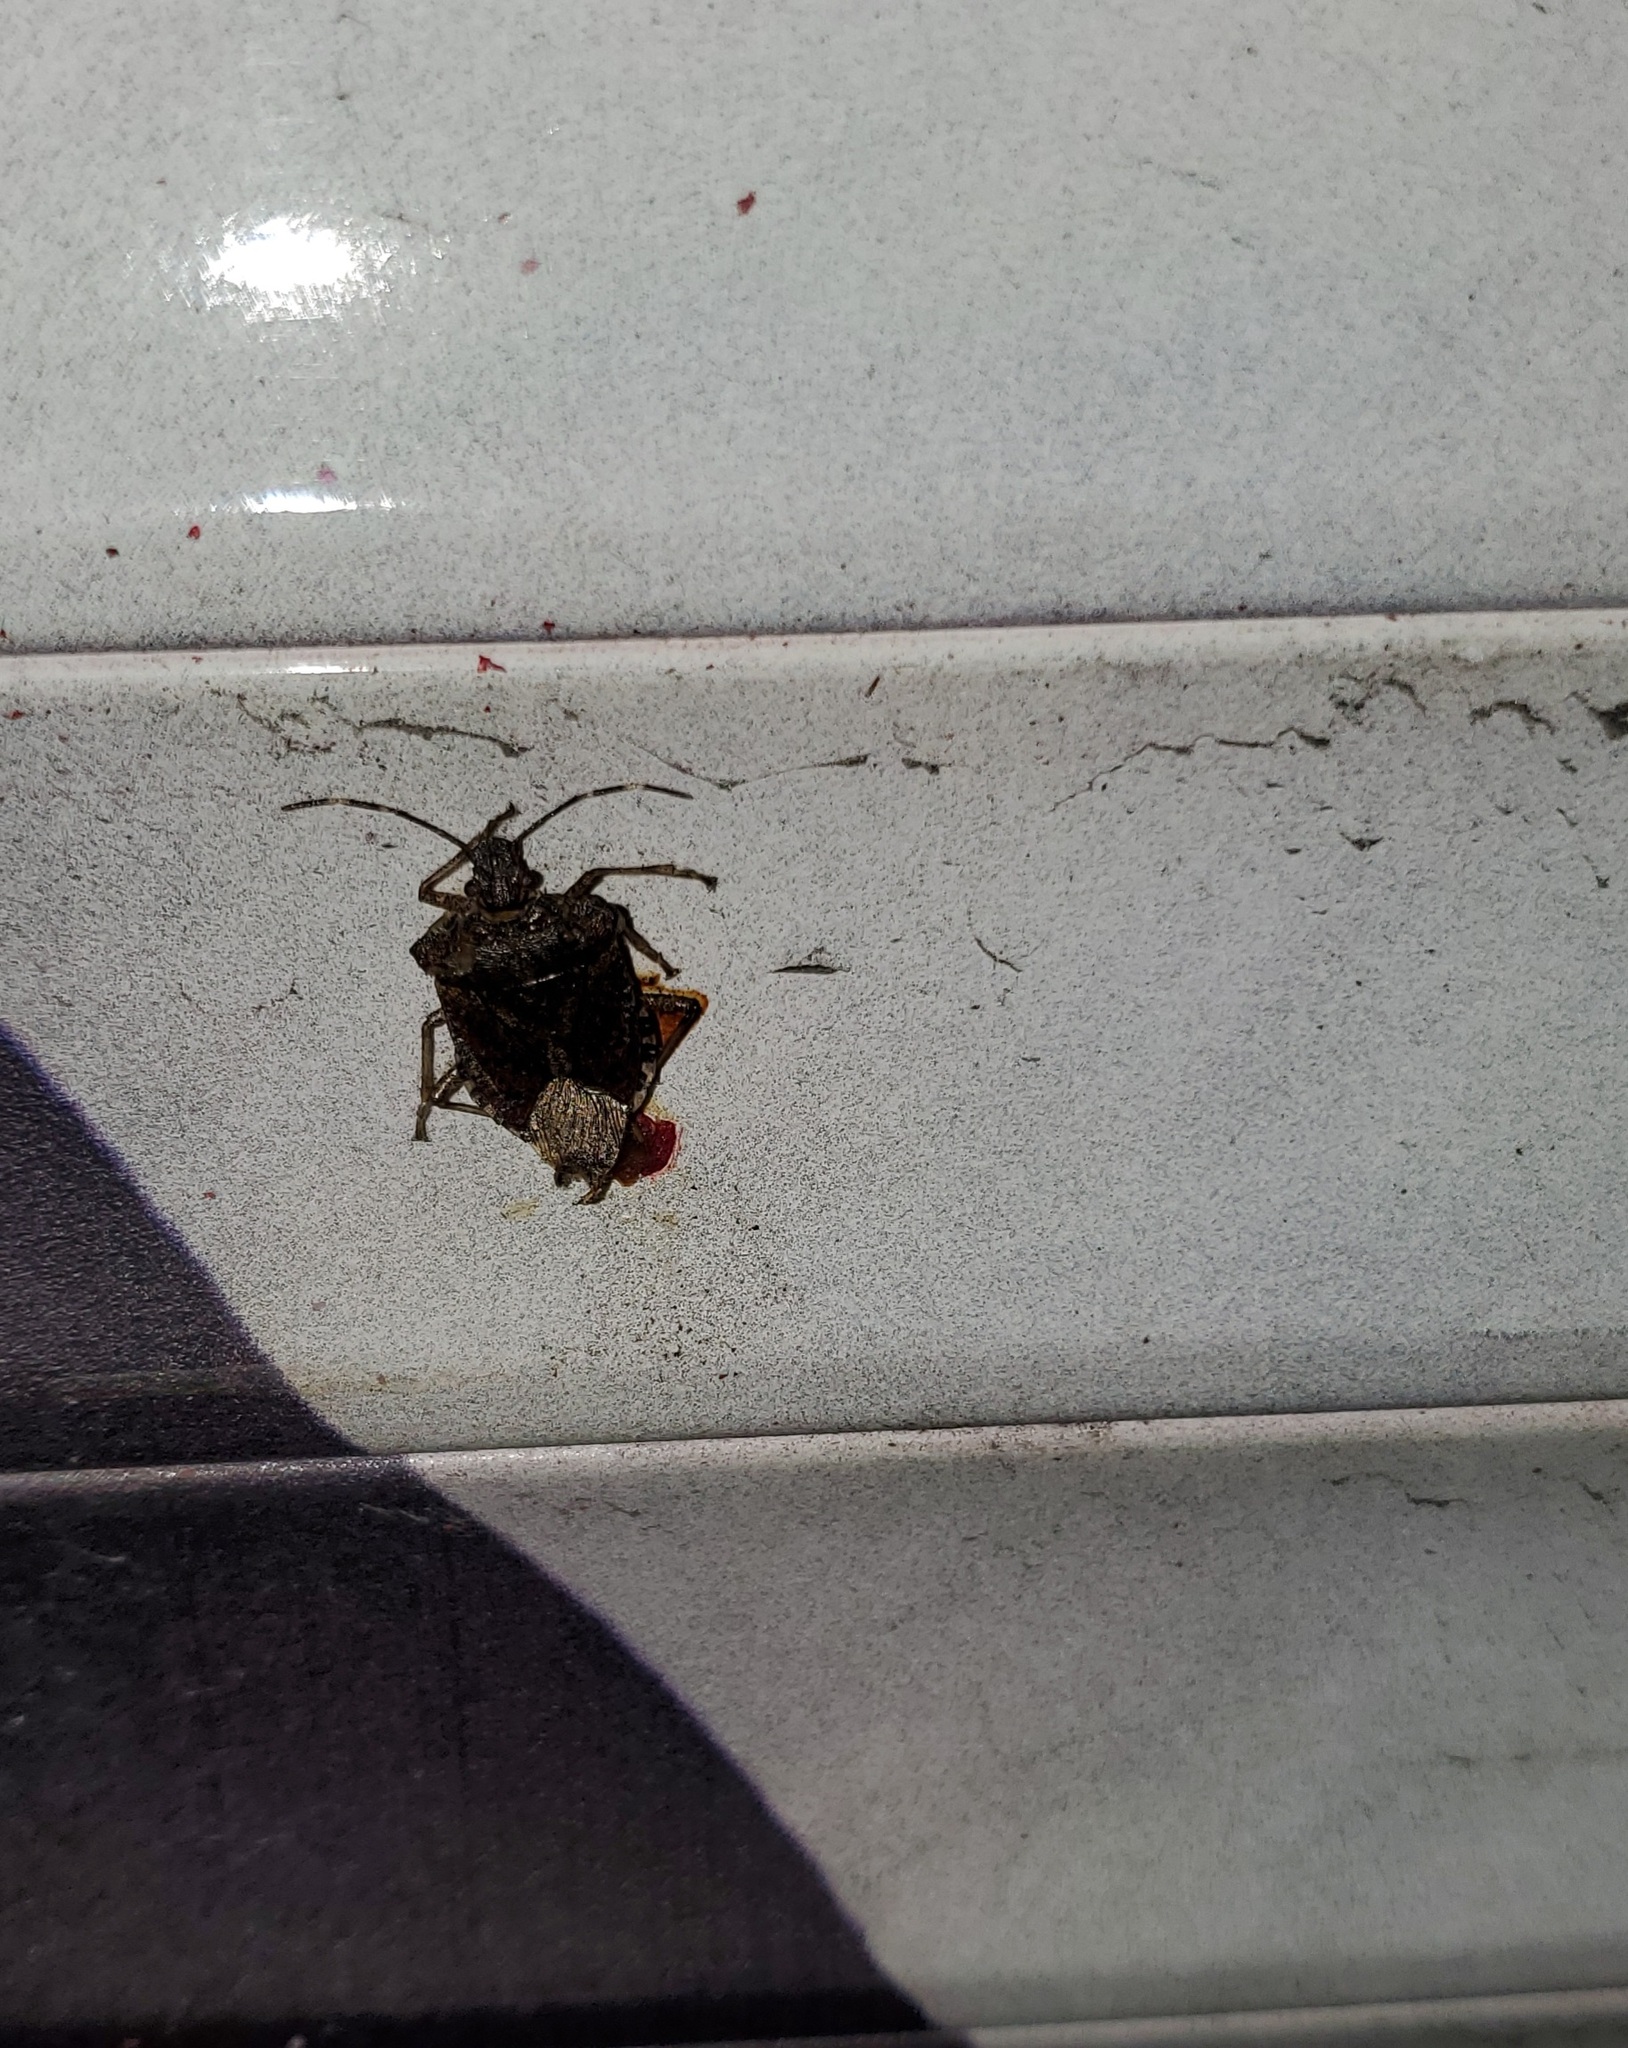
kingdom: Animalia
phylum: Arthropoda
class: Insecta
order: Hemiptera
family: Pentatomidae
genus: Halyomorpha
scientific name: Halyomorpha halys
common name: Brown marmorated stink bug
